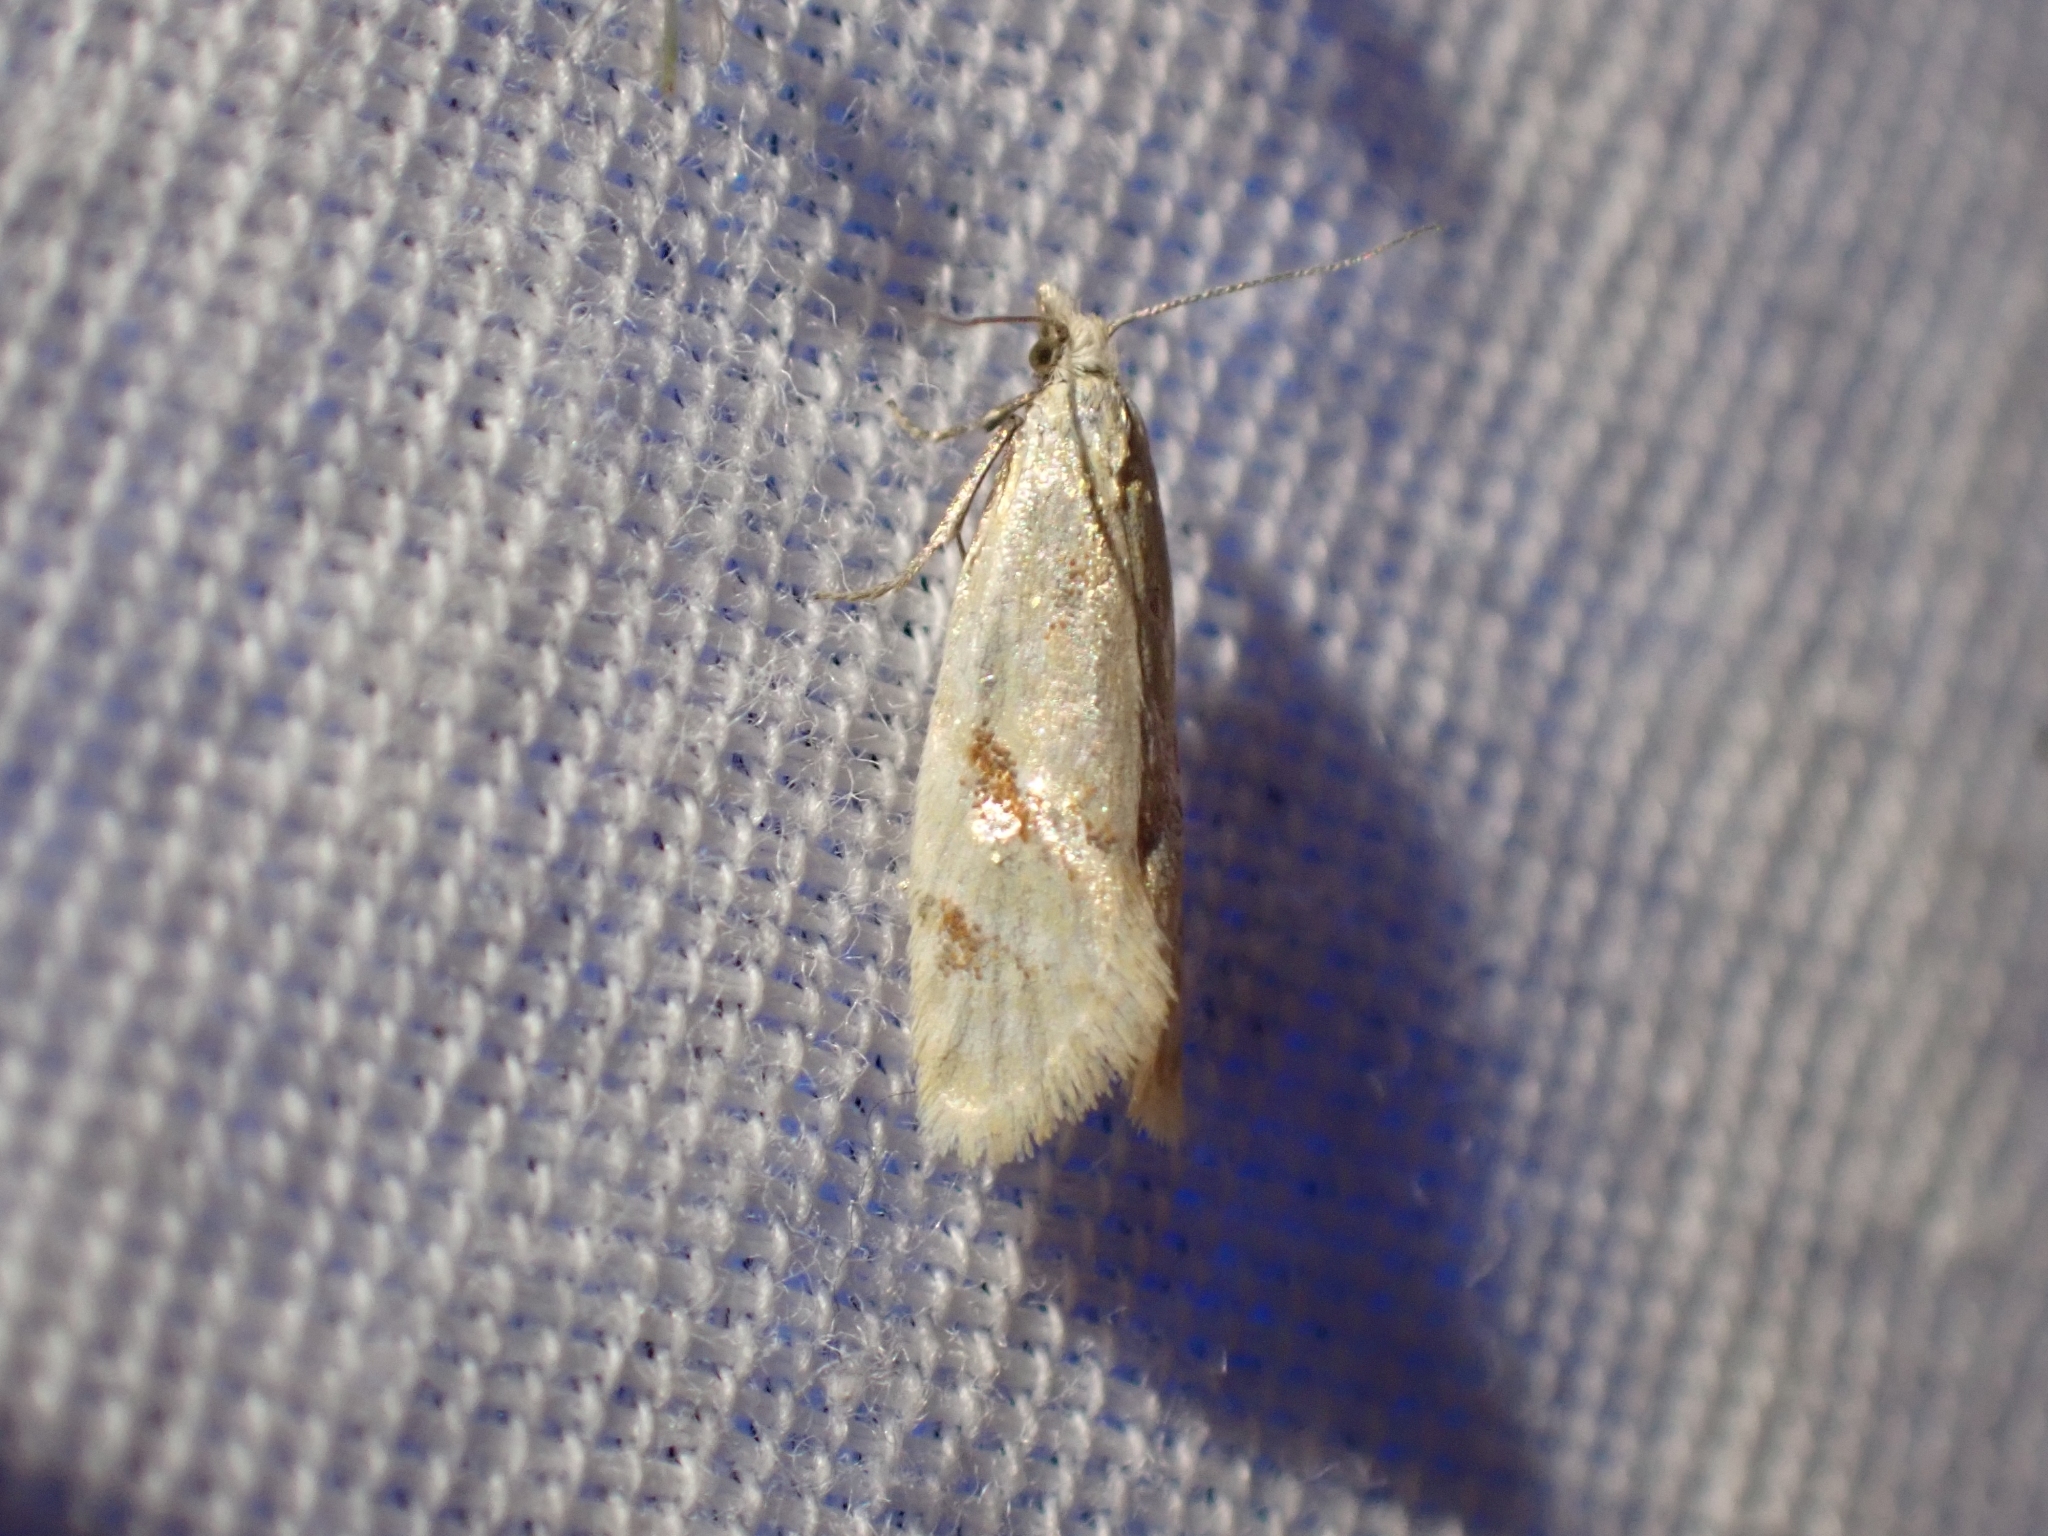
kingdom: Animalia
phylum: Arthropoda
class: Insecta
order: Lepidoptera
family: Tortricidae
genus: Phtheochroa
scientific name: Phtheochroa aureoalbida
